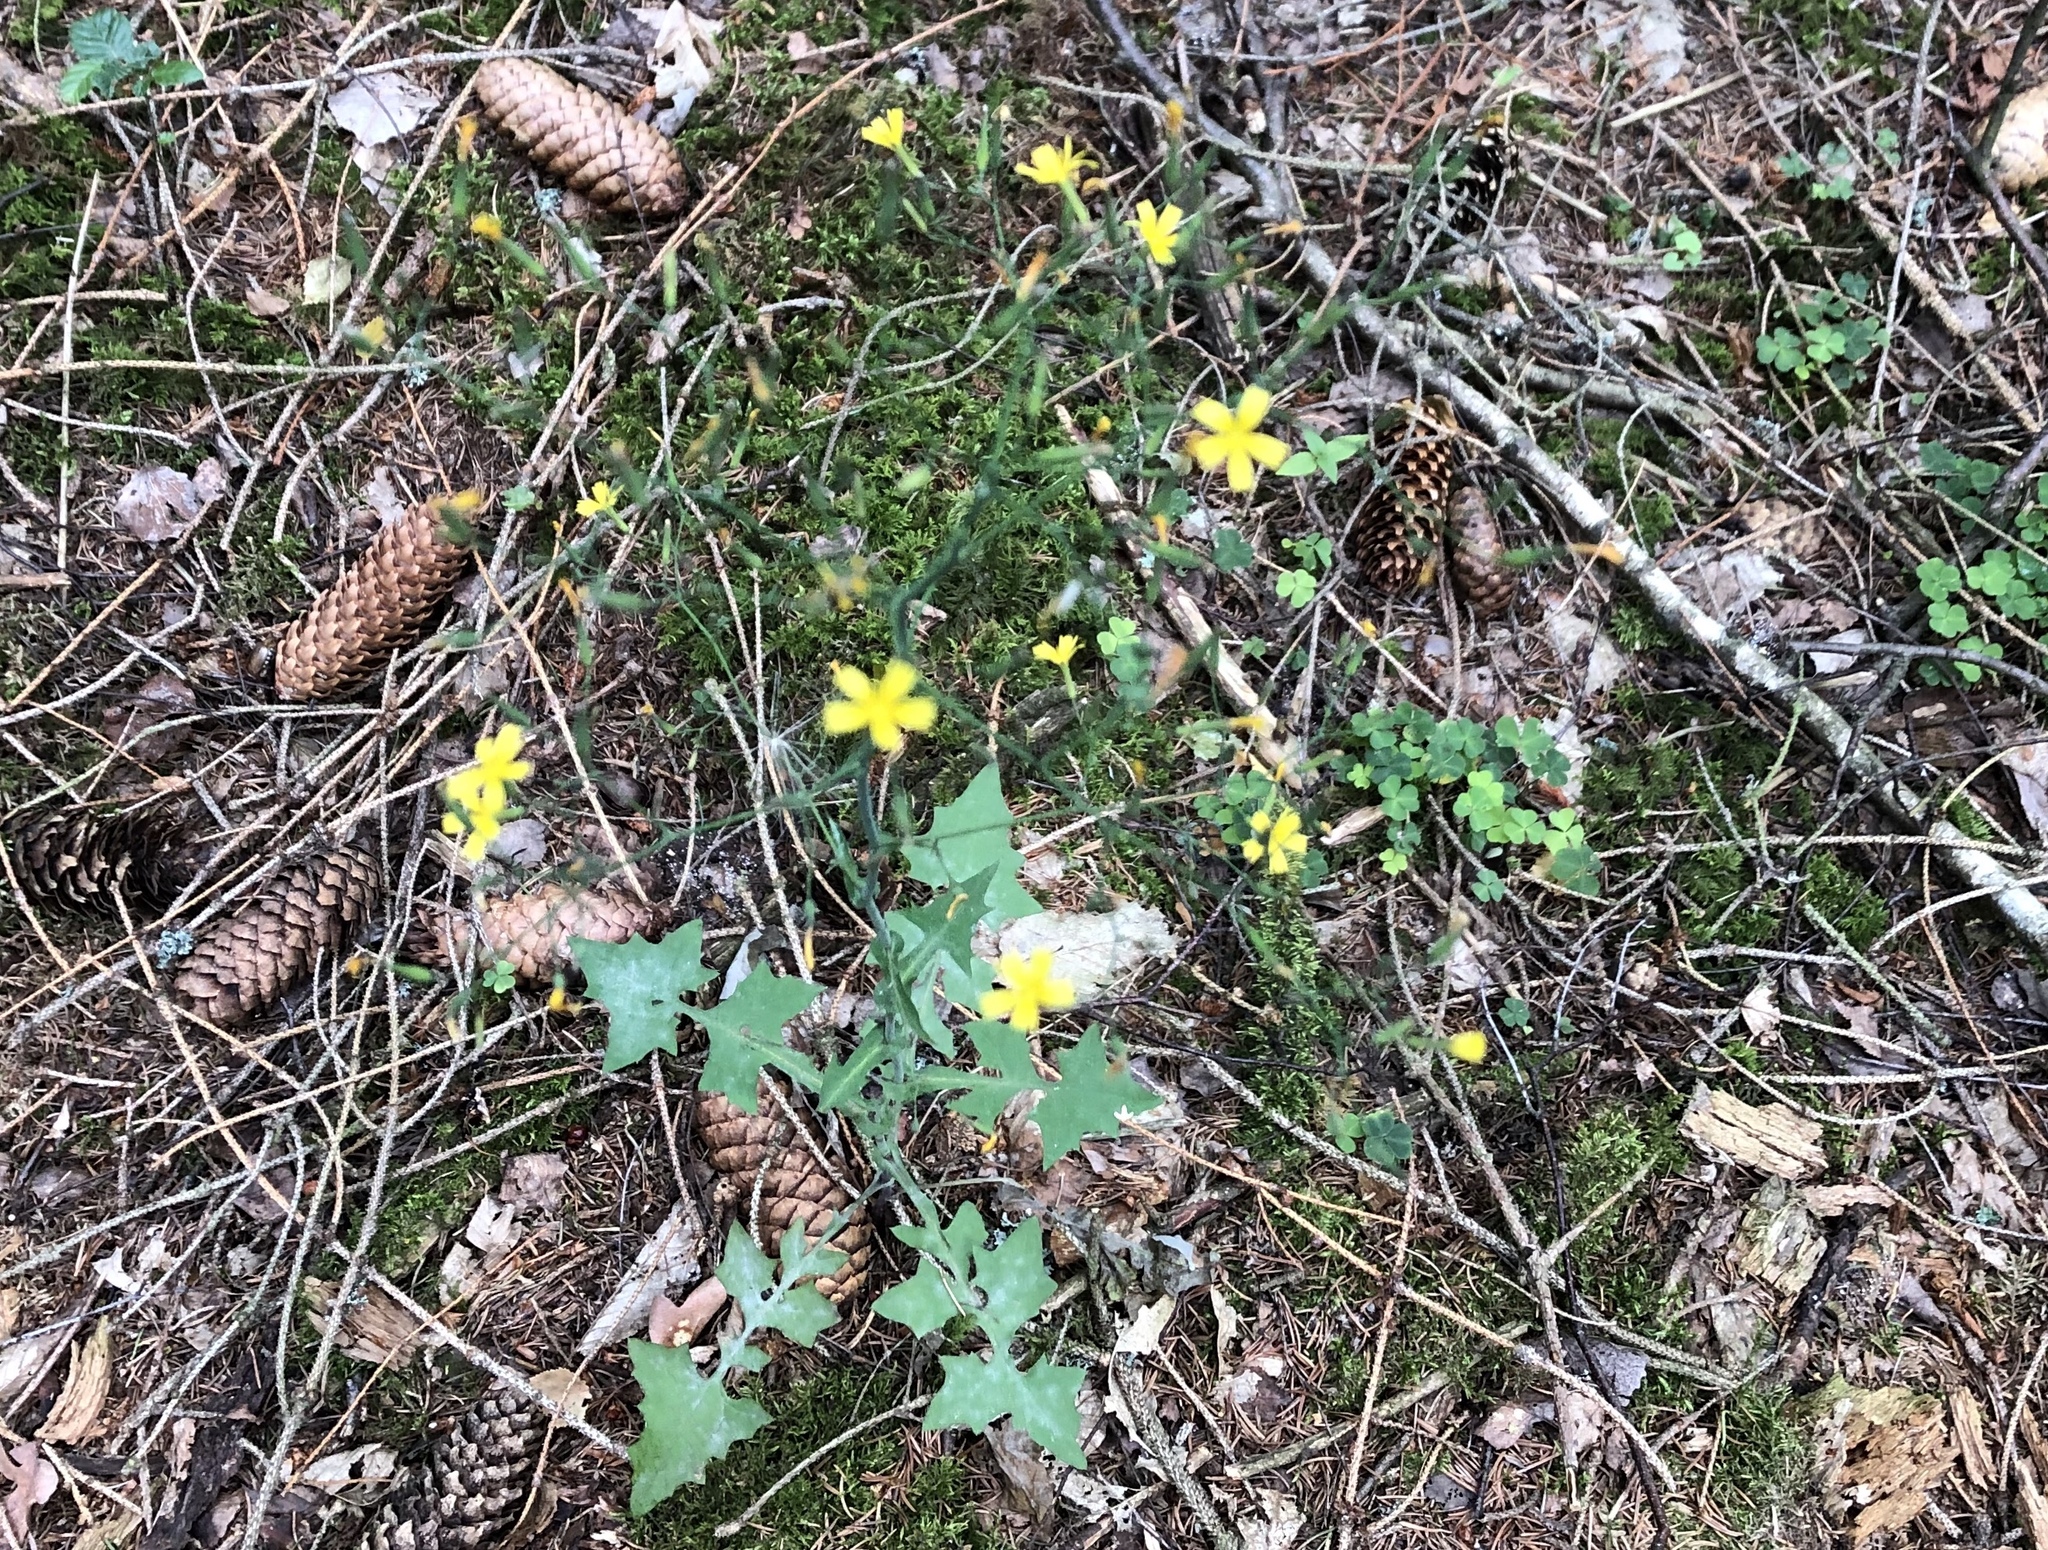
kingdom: Plantae
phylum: Tracheophyta
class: Magnoliopsida
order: Asterales
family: Asteraceae
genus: Mycelis
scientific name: Mycelis muralis
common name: Wall lettuce
